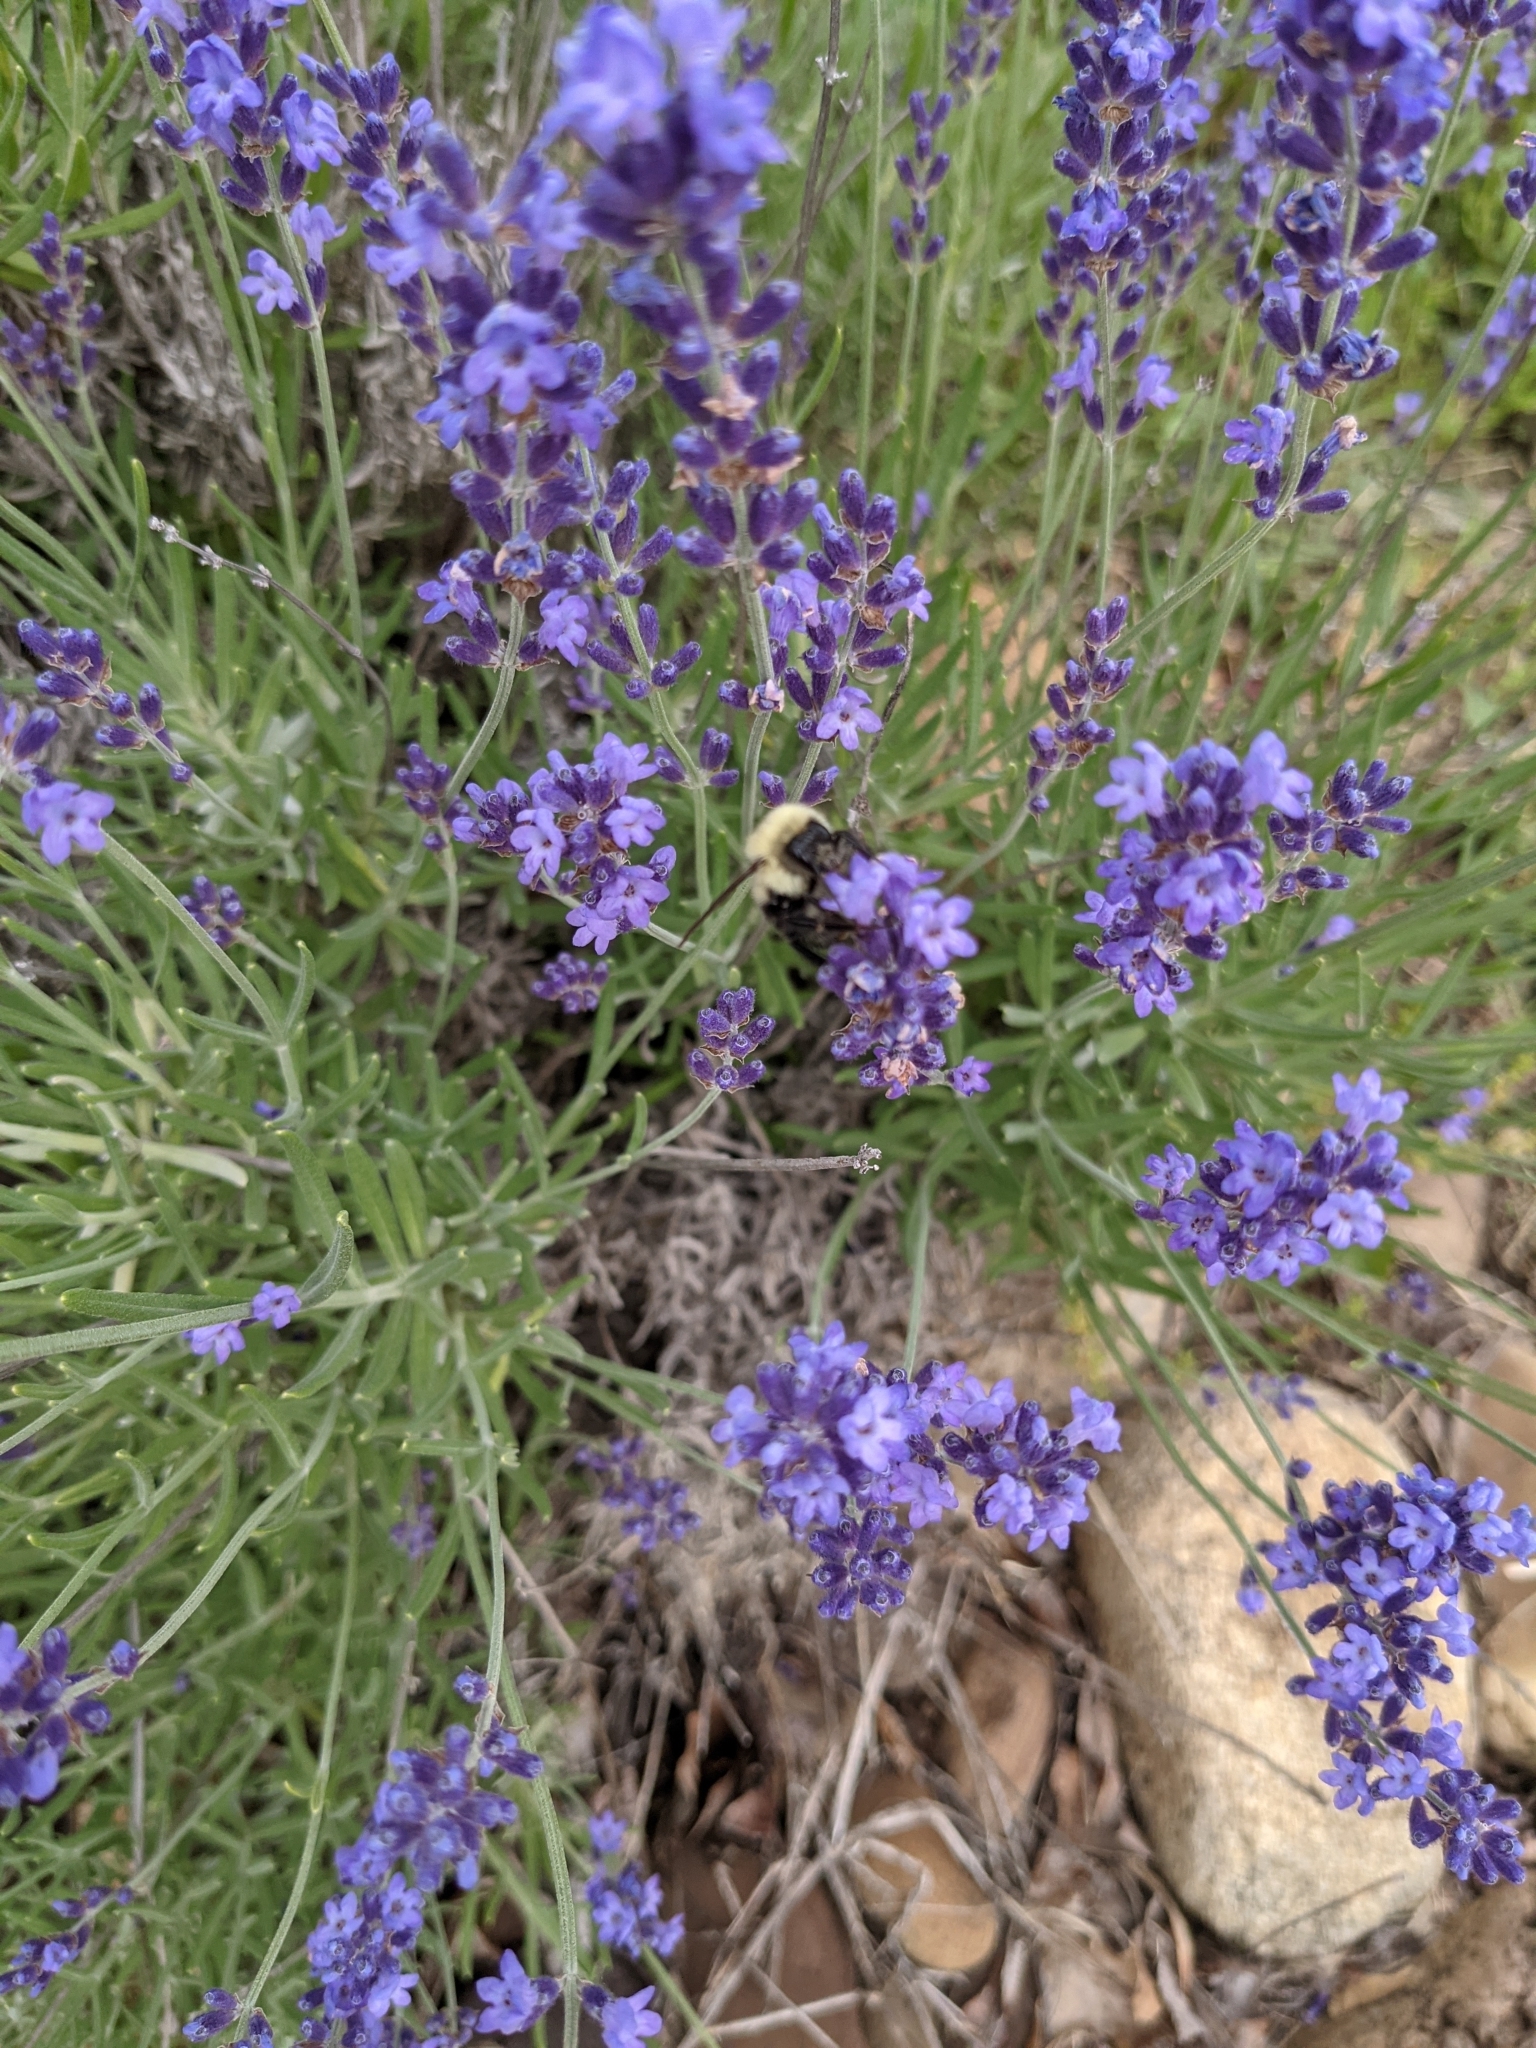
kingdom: Animalia
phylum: Arthropoda
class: Insecta
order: Hymenoptera
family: Apidae
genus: Bombus
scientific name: Bombus bimaculatus
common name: Two-spotted bumble bee
